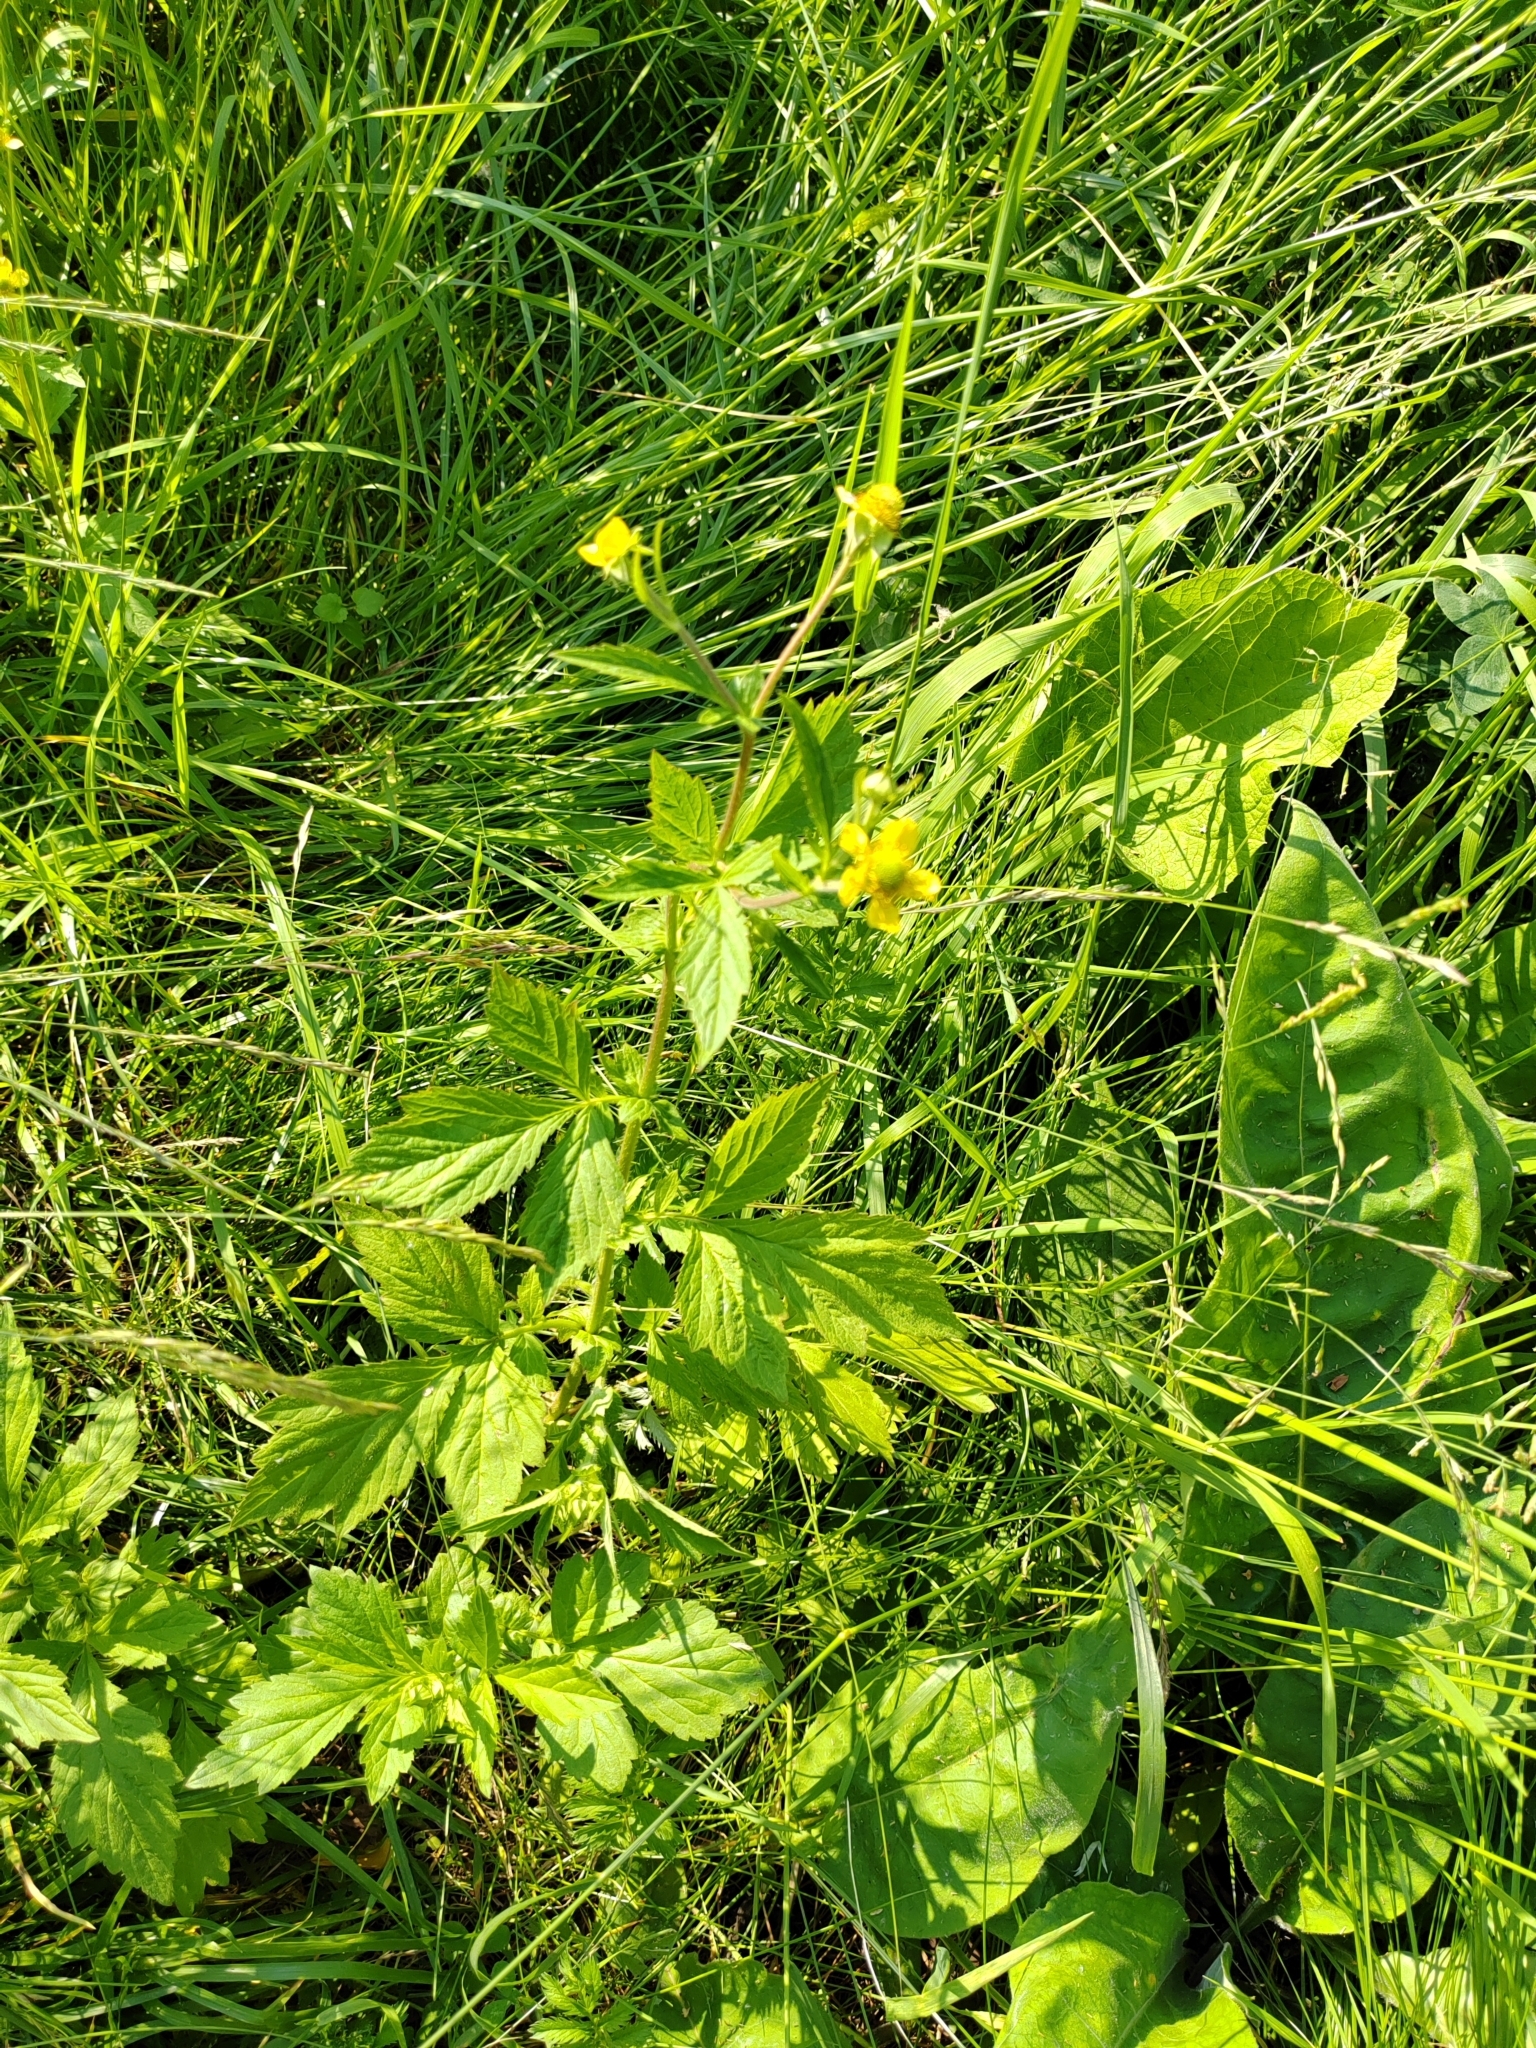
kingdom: Plantae
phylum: Tracheophyta
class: Magnoliopsida
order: Rosales
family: Rosaceae
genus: Geum
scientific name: Geum aleppicum
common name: Yellow avens
